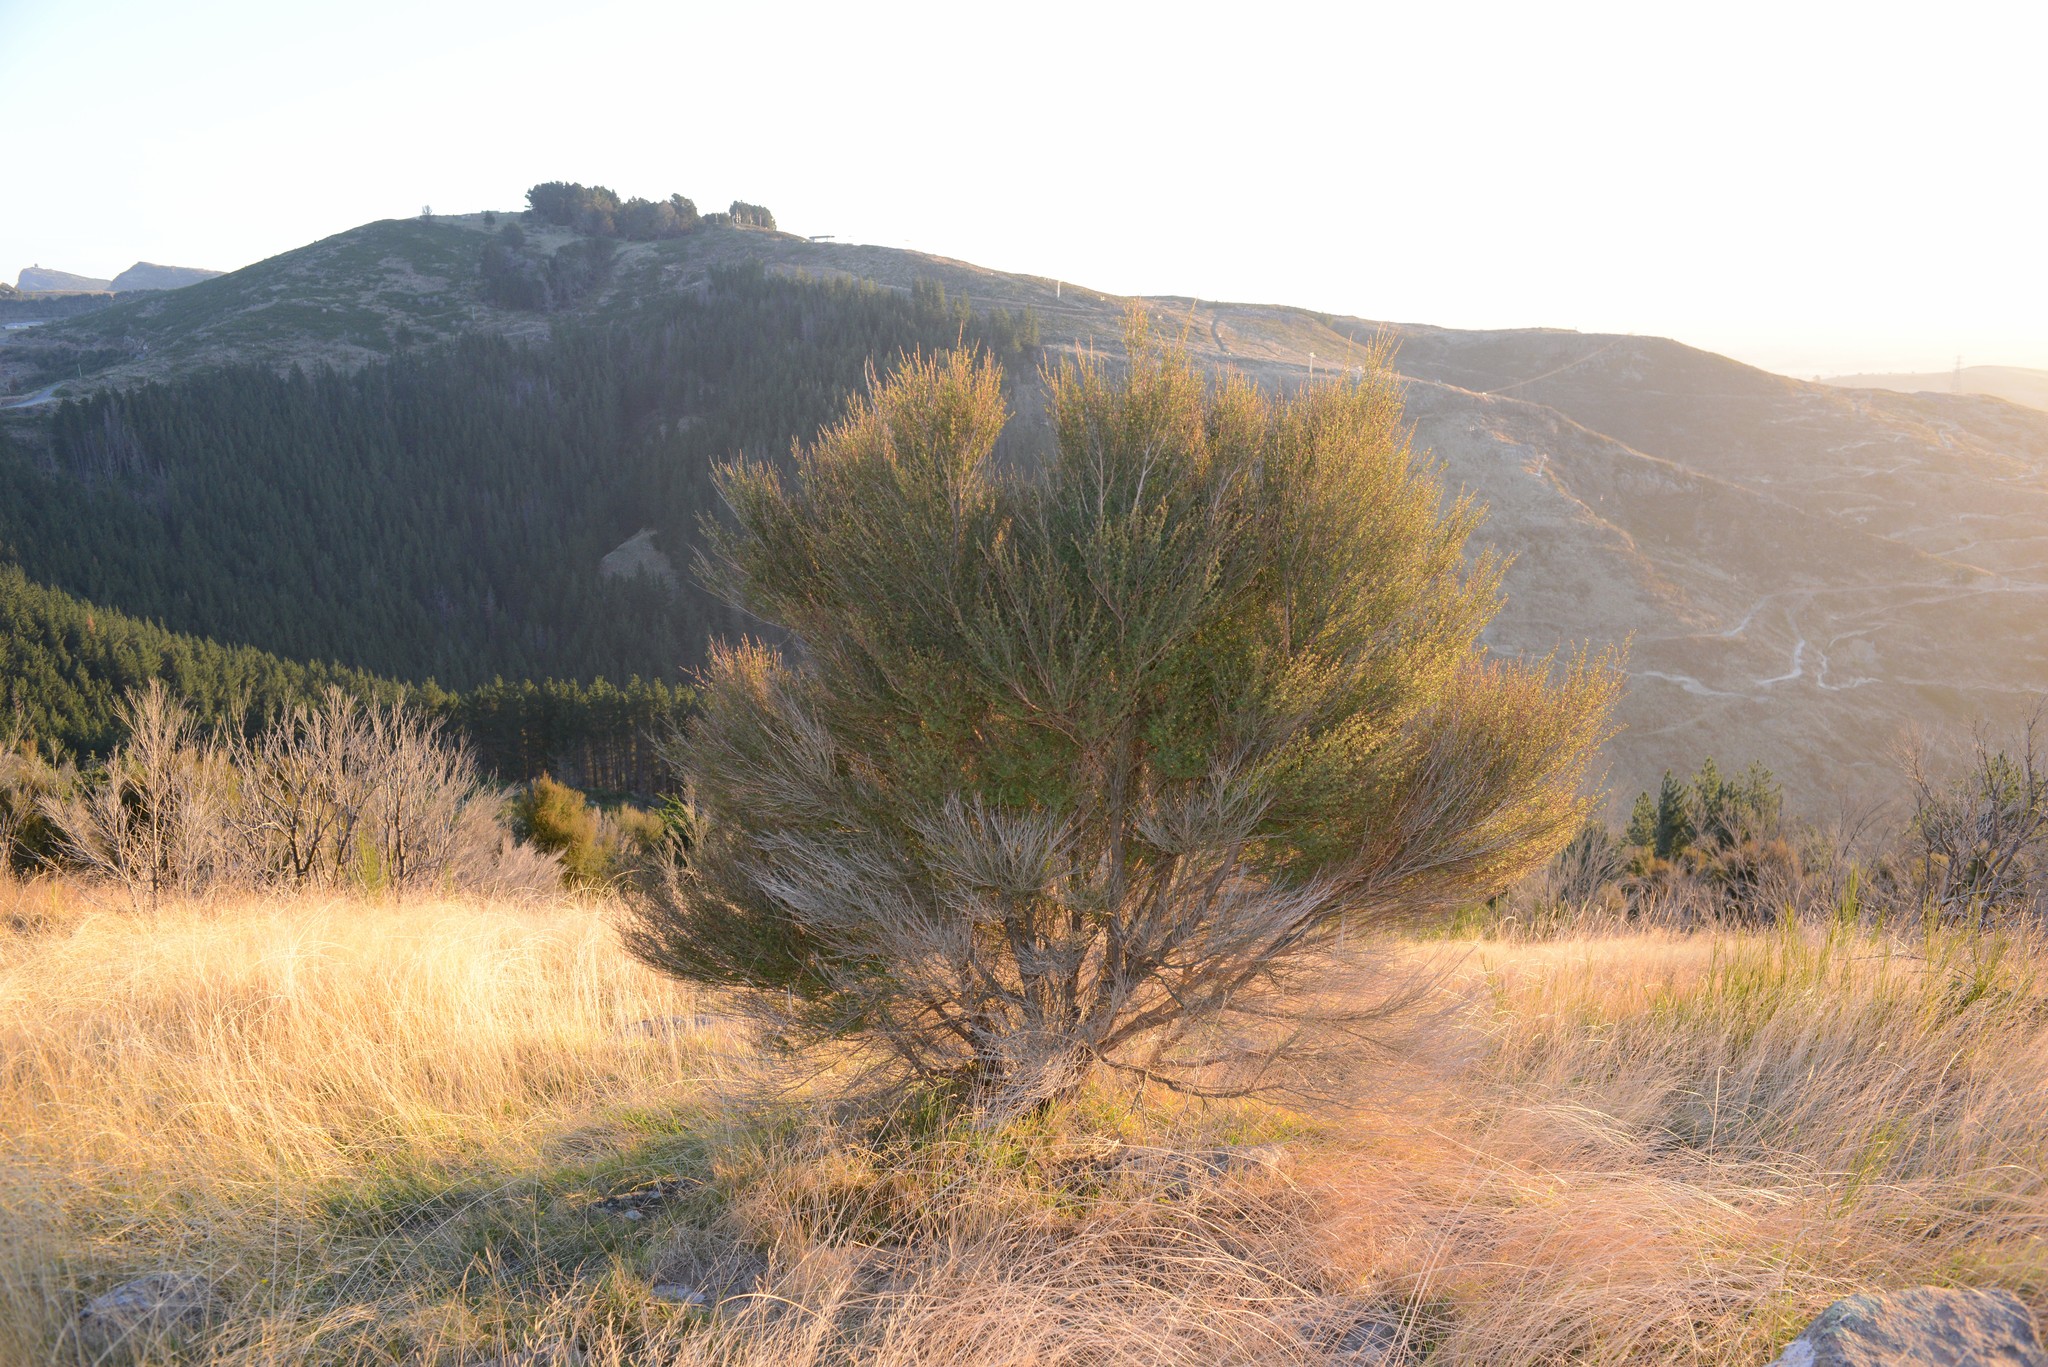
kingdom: Plantae
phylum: Tracheophyta
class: Magnoliopsida
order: Myrtales
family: Myrtaceae
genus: Kunzea
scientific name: Kunzea robusta
